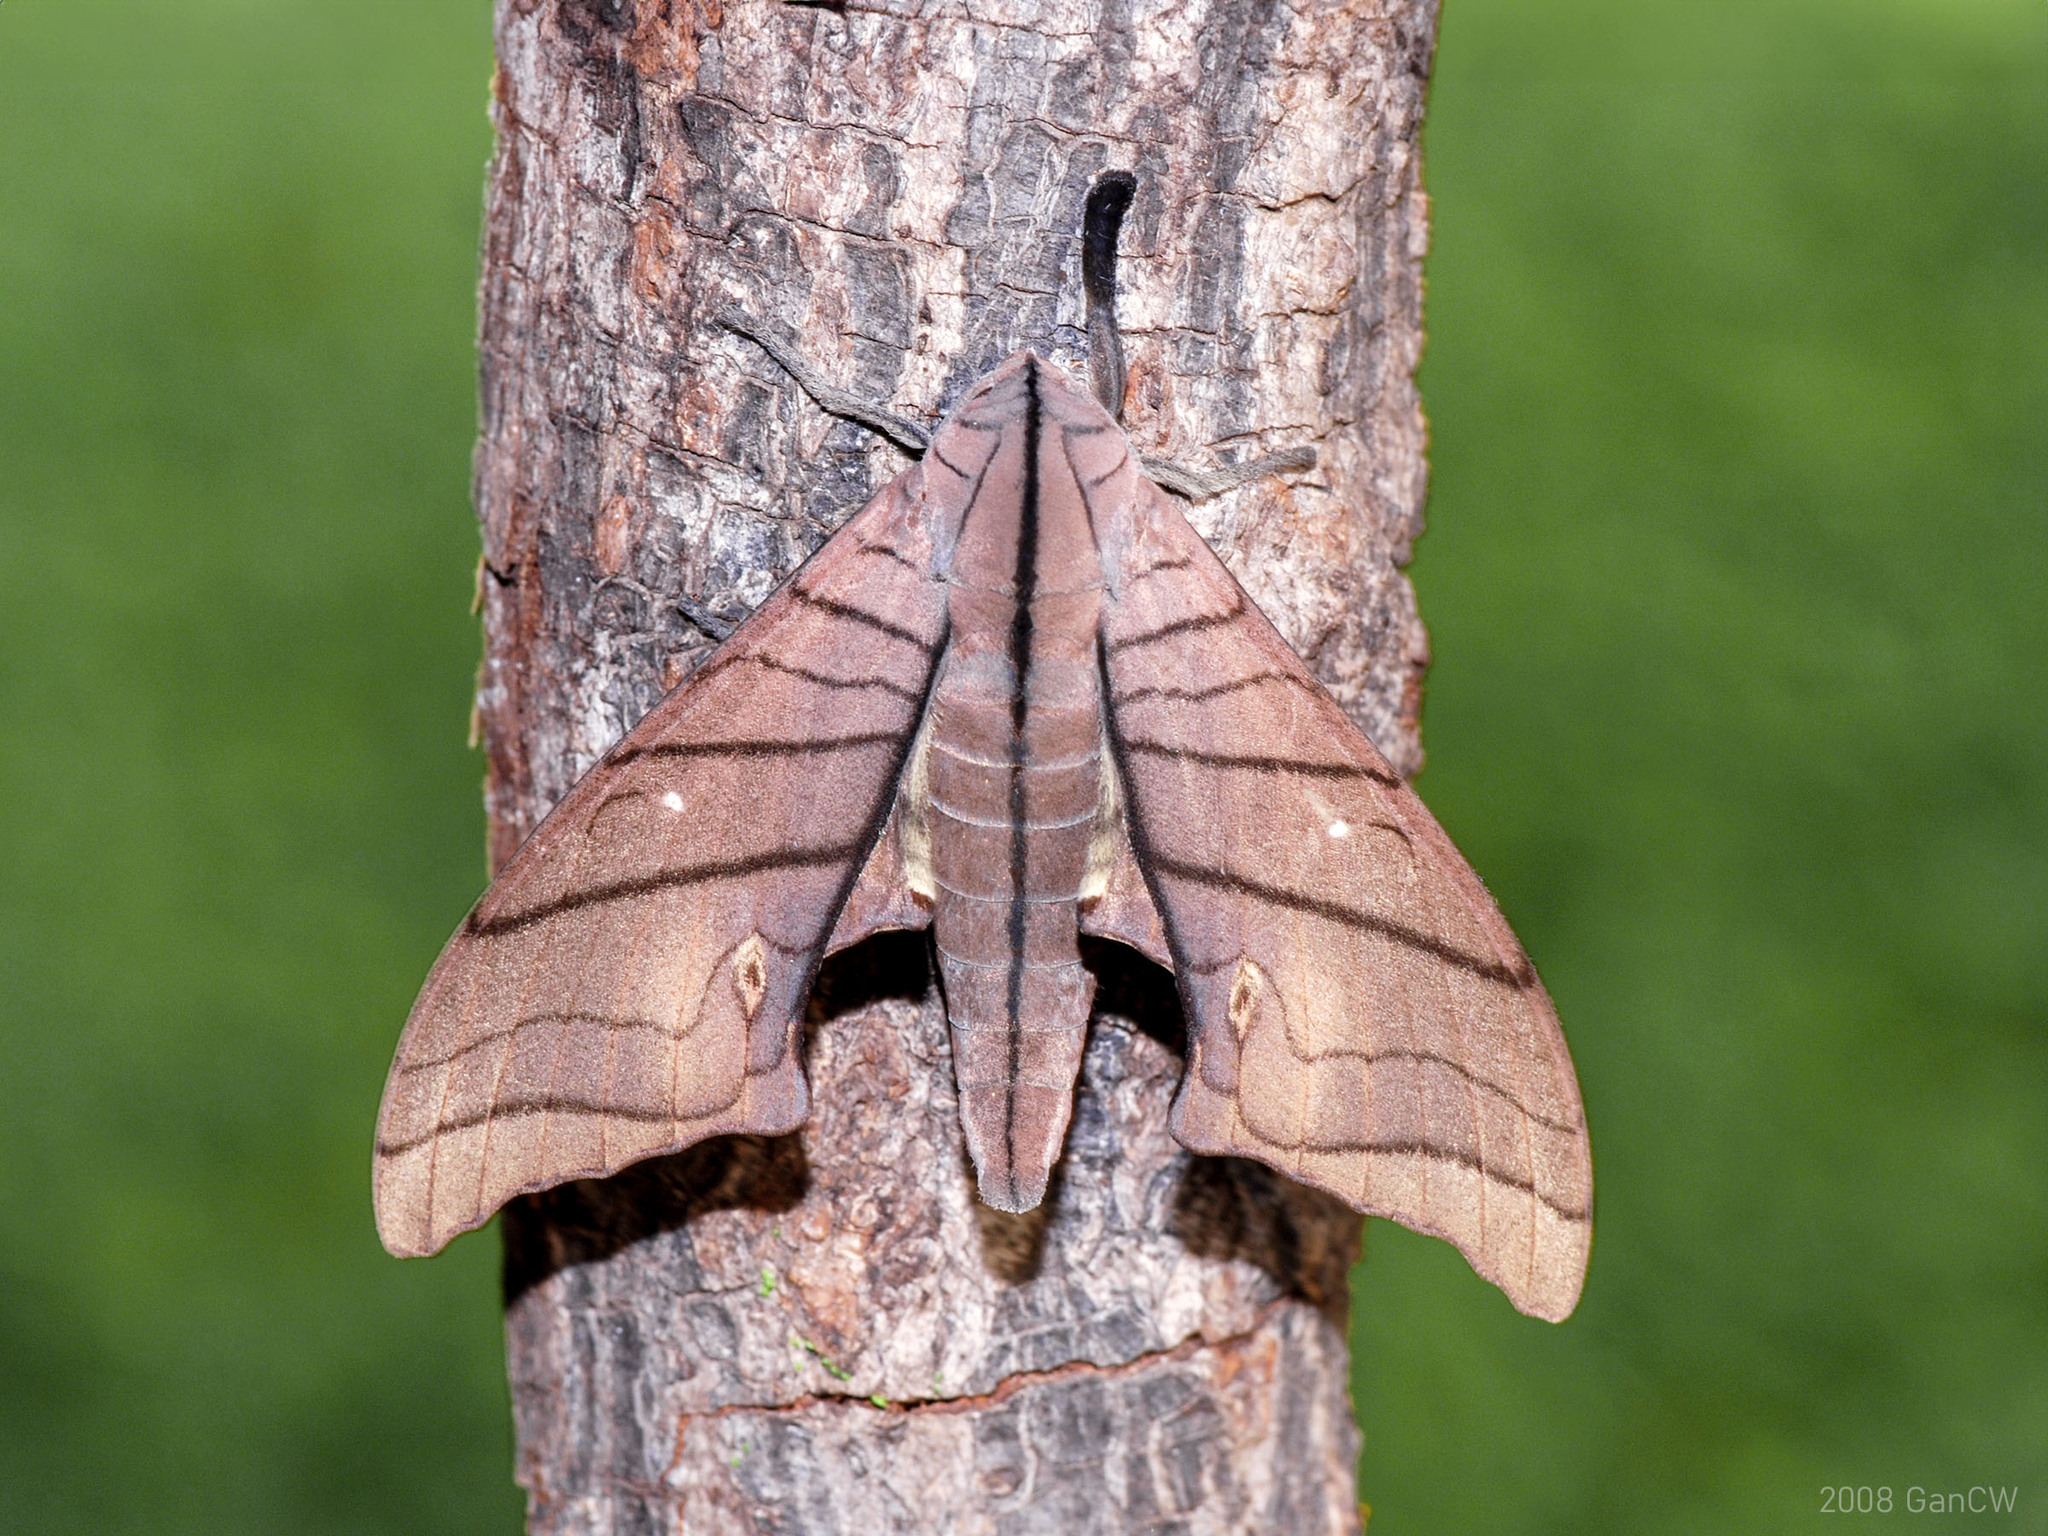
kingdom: Animalia
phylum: Arthropoda
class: Insecta
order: Lepidoptera
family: Sphingidae
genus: Marumba
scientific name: Marumba cristata
